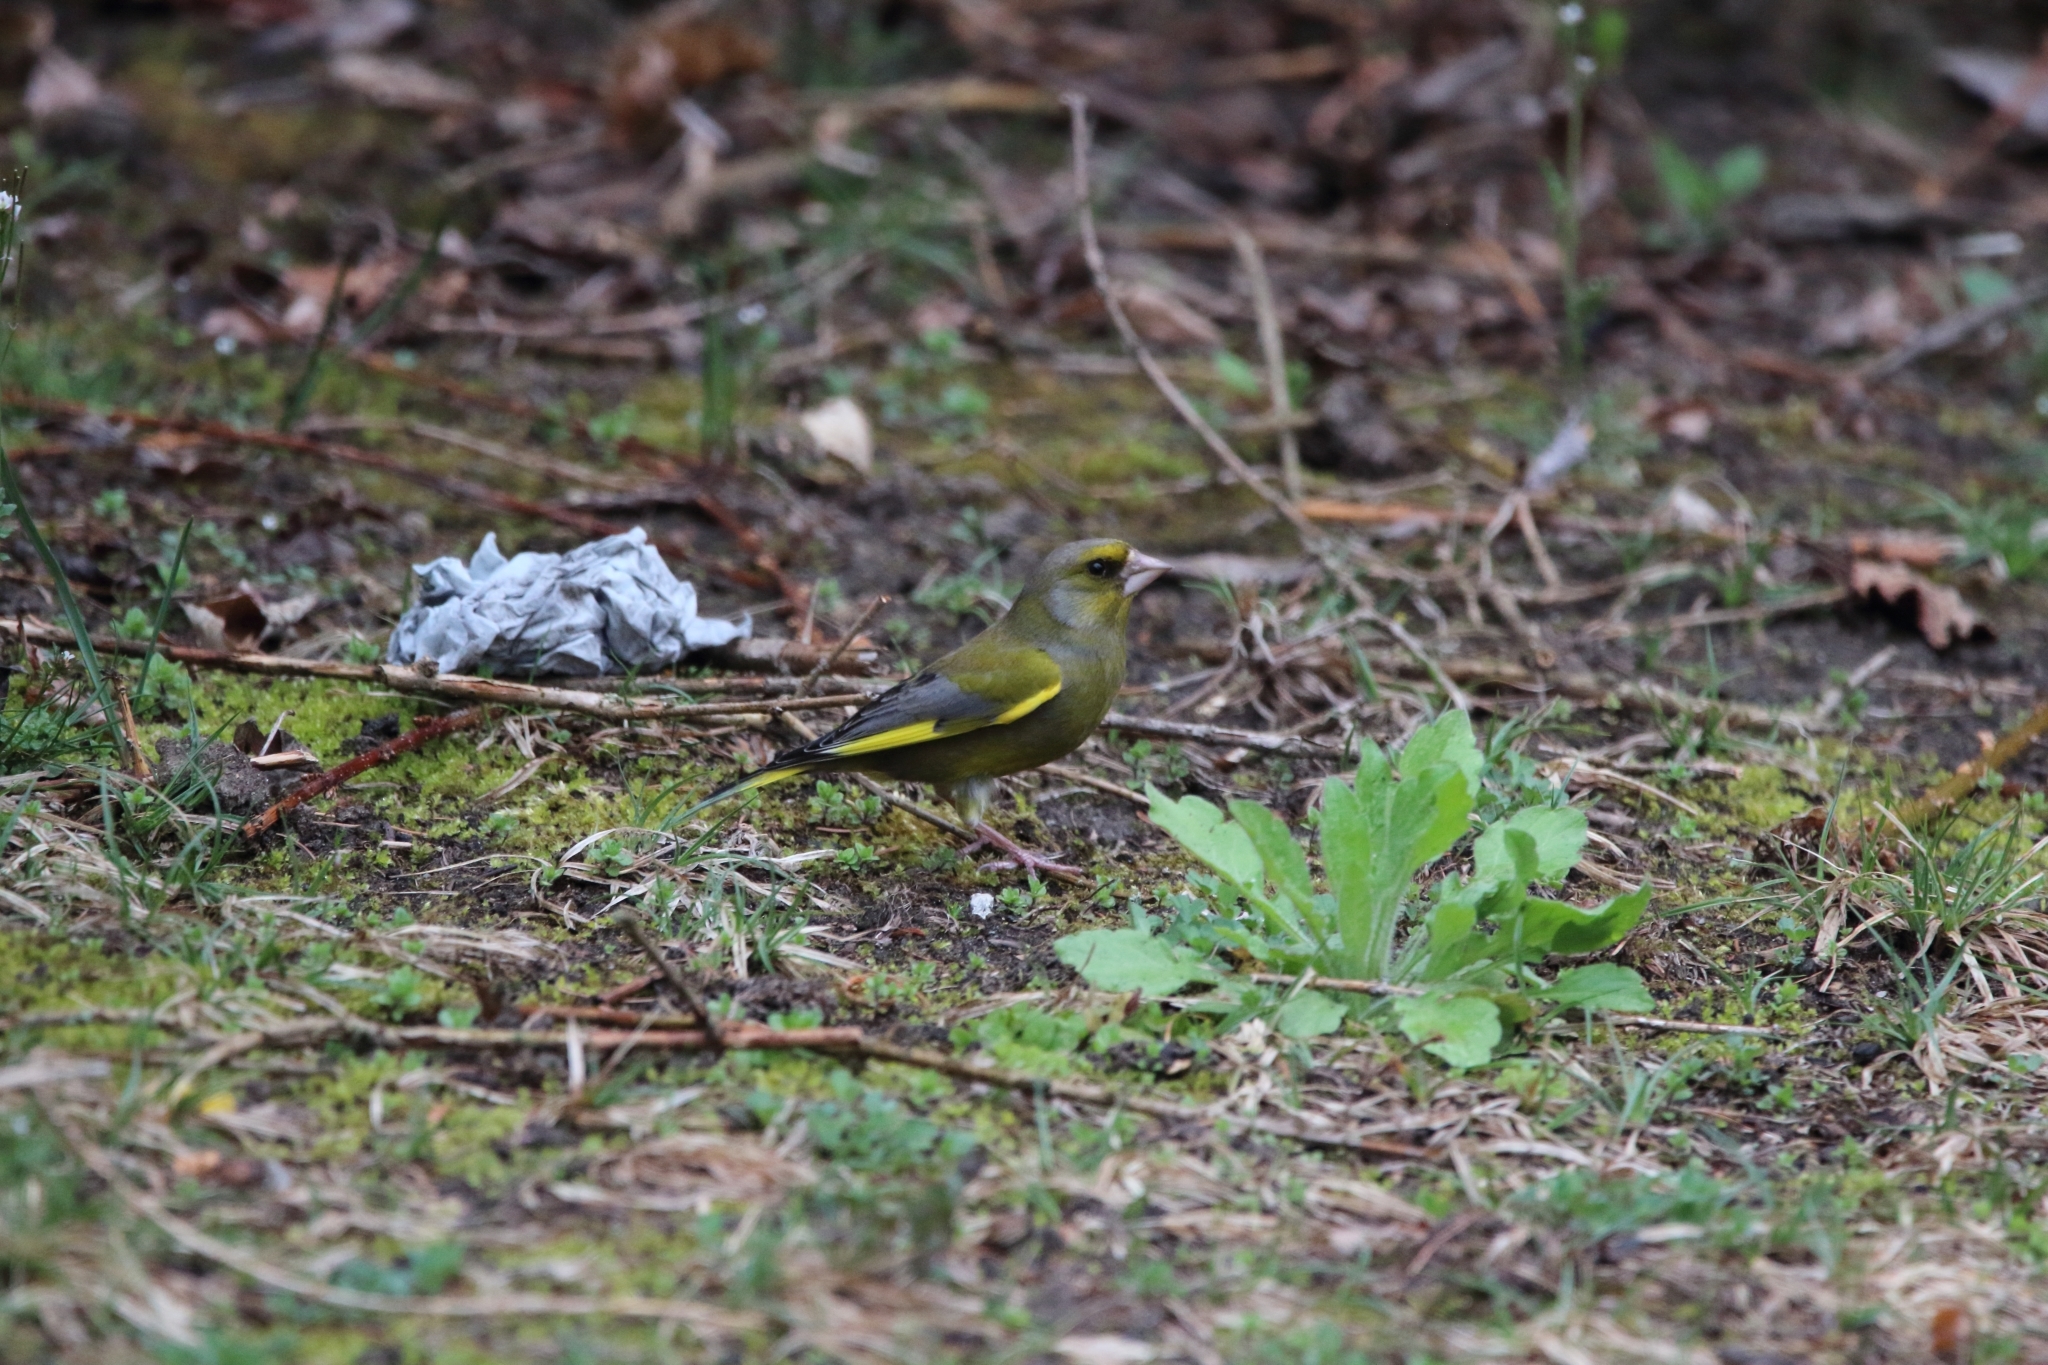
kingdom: Plantae
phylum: Tracheophyta
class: Liliopsida
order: Poales
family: Poaceae
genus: Chloris
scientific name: Chloris chloris
